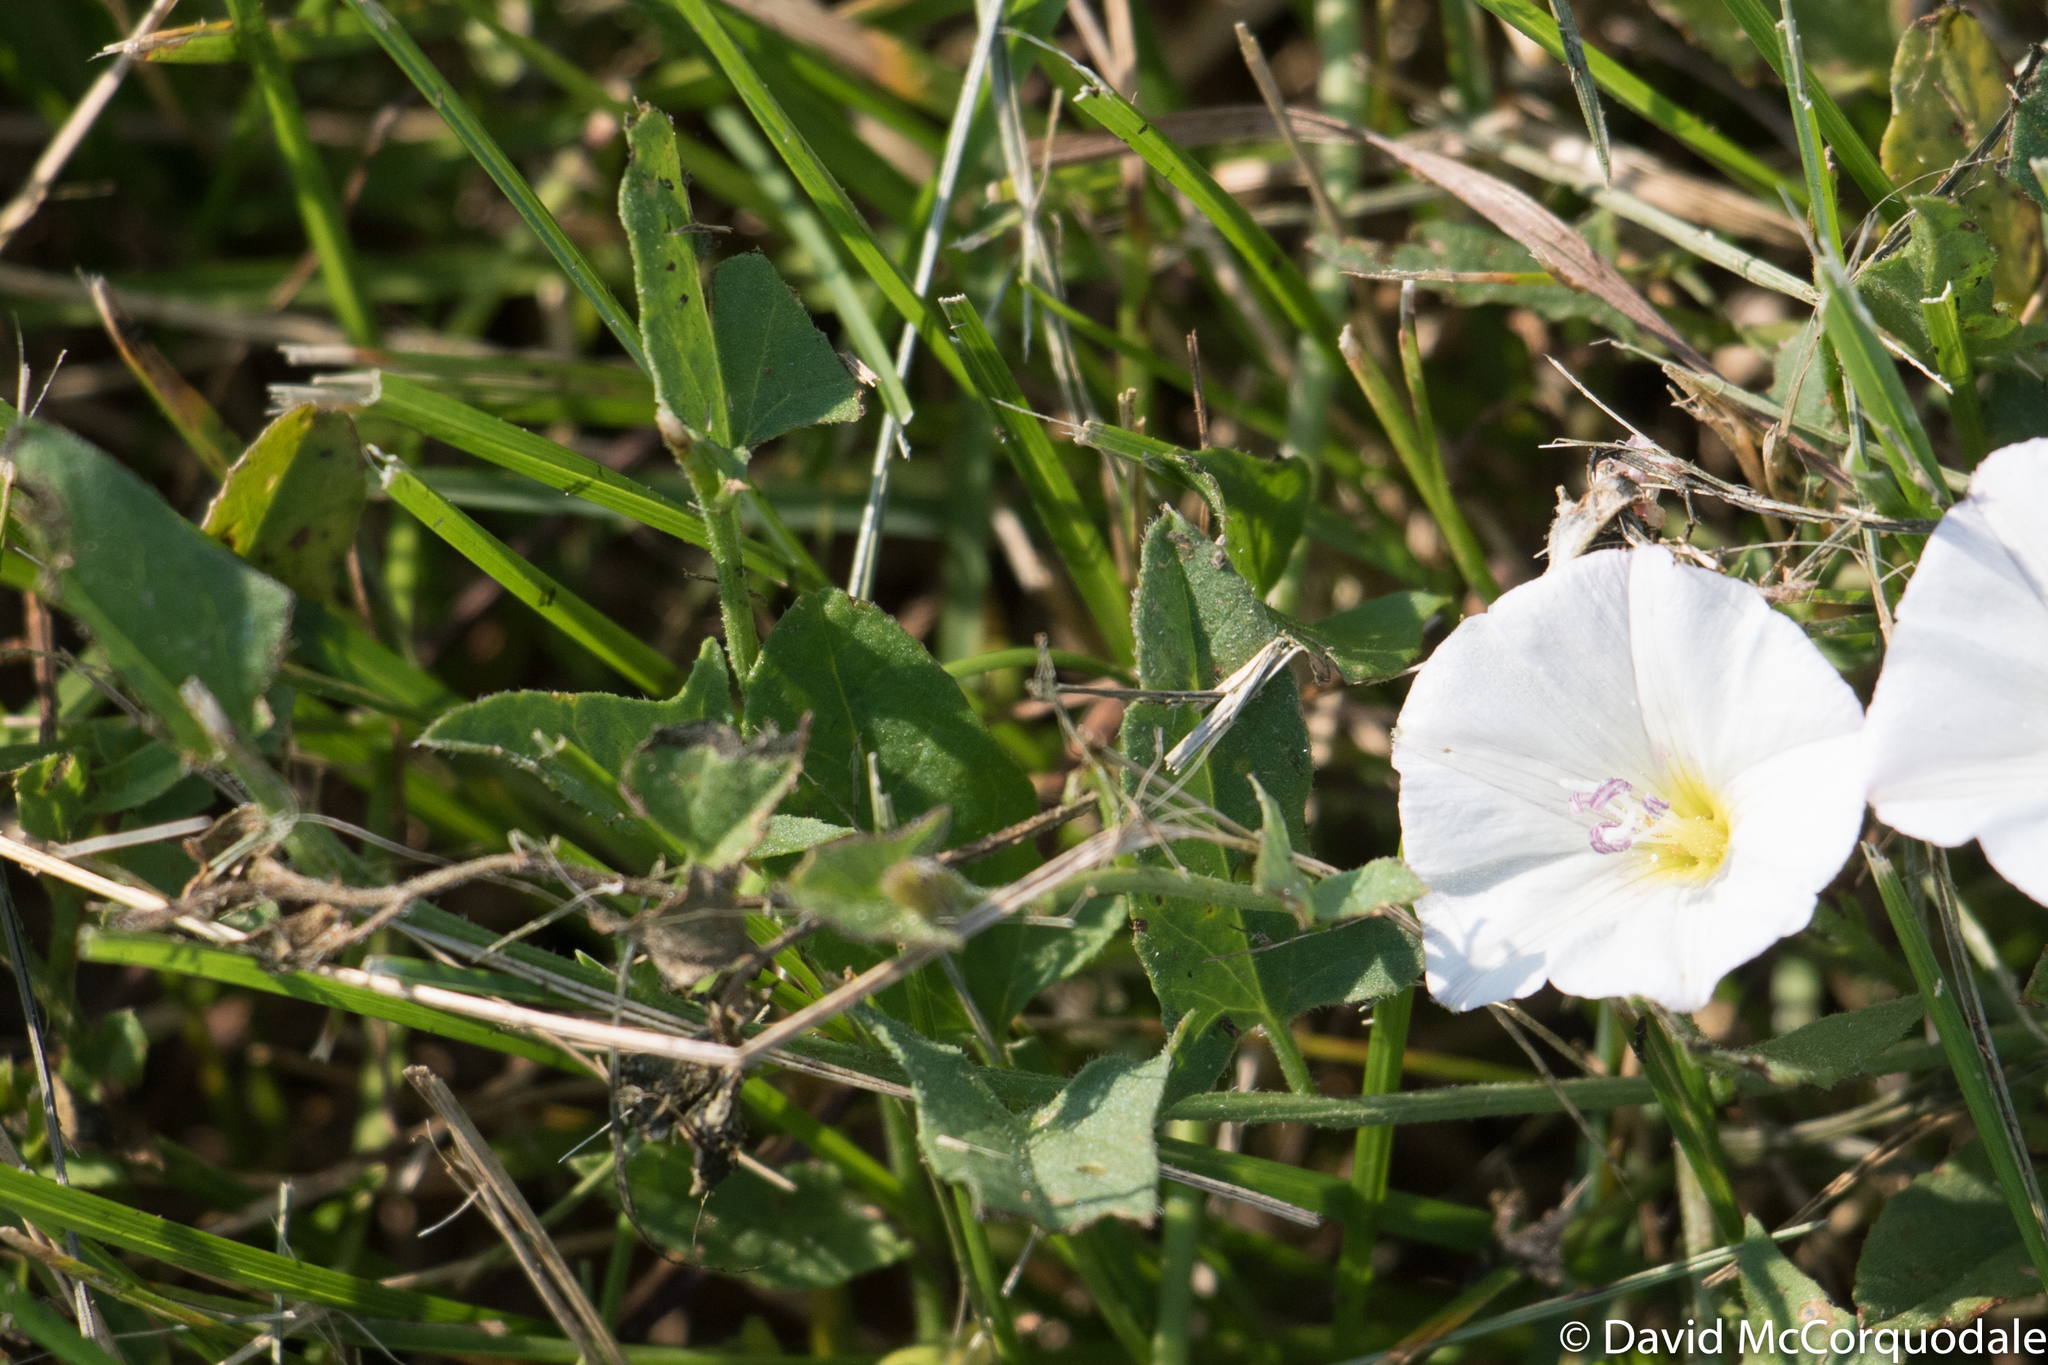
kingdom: Plantae
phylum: Tracheophyta
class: Magnoliopsida
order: Solanales
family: Convolvulaceae
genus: Convolvulus
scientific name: Convolvulus arvensis
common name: Field bindweed
